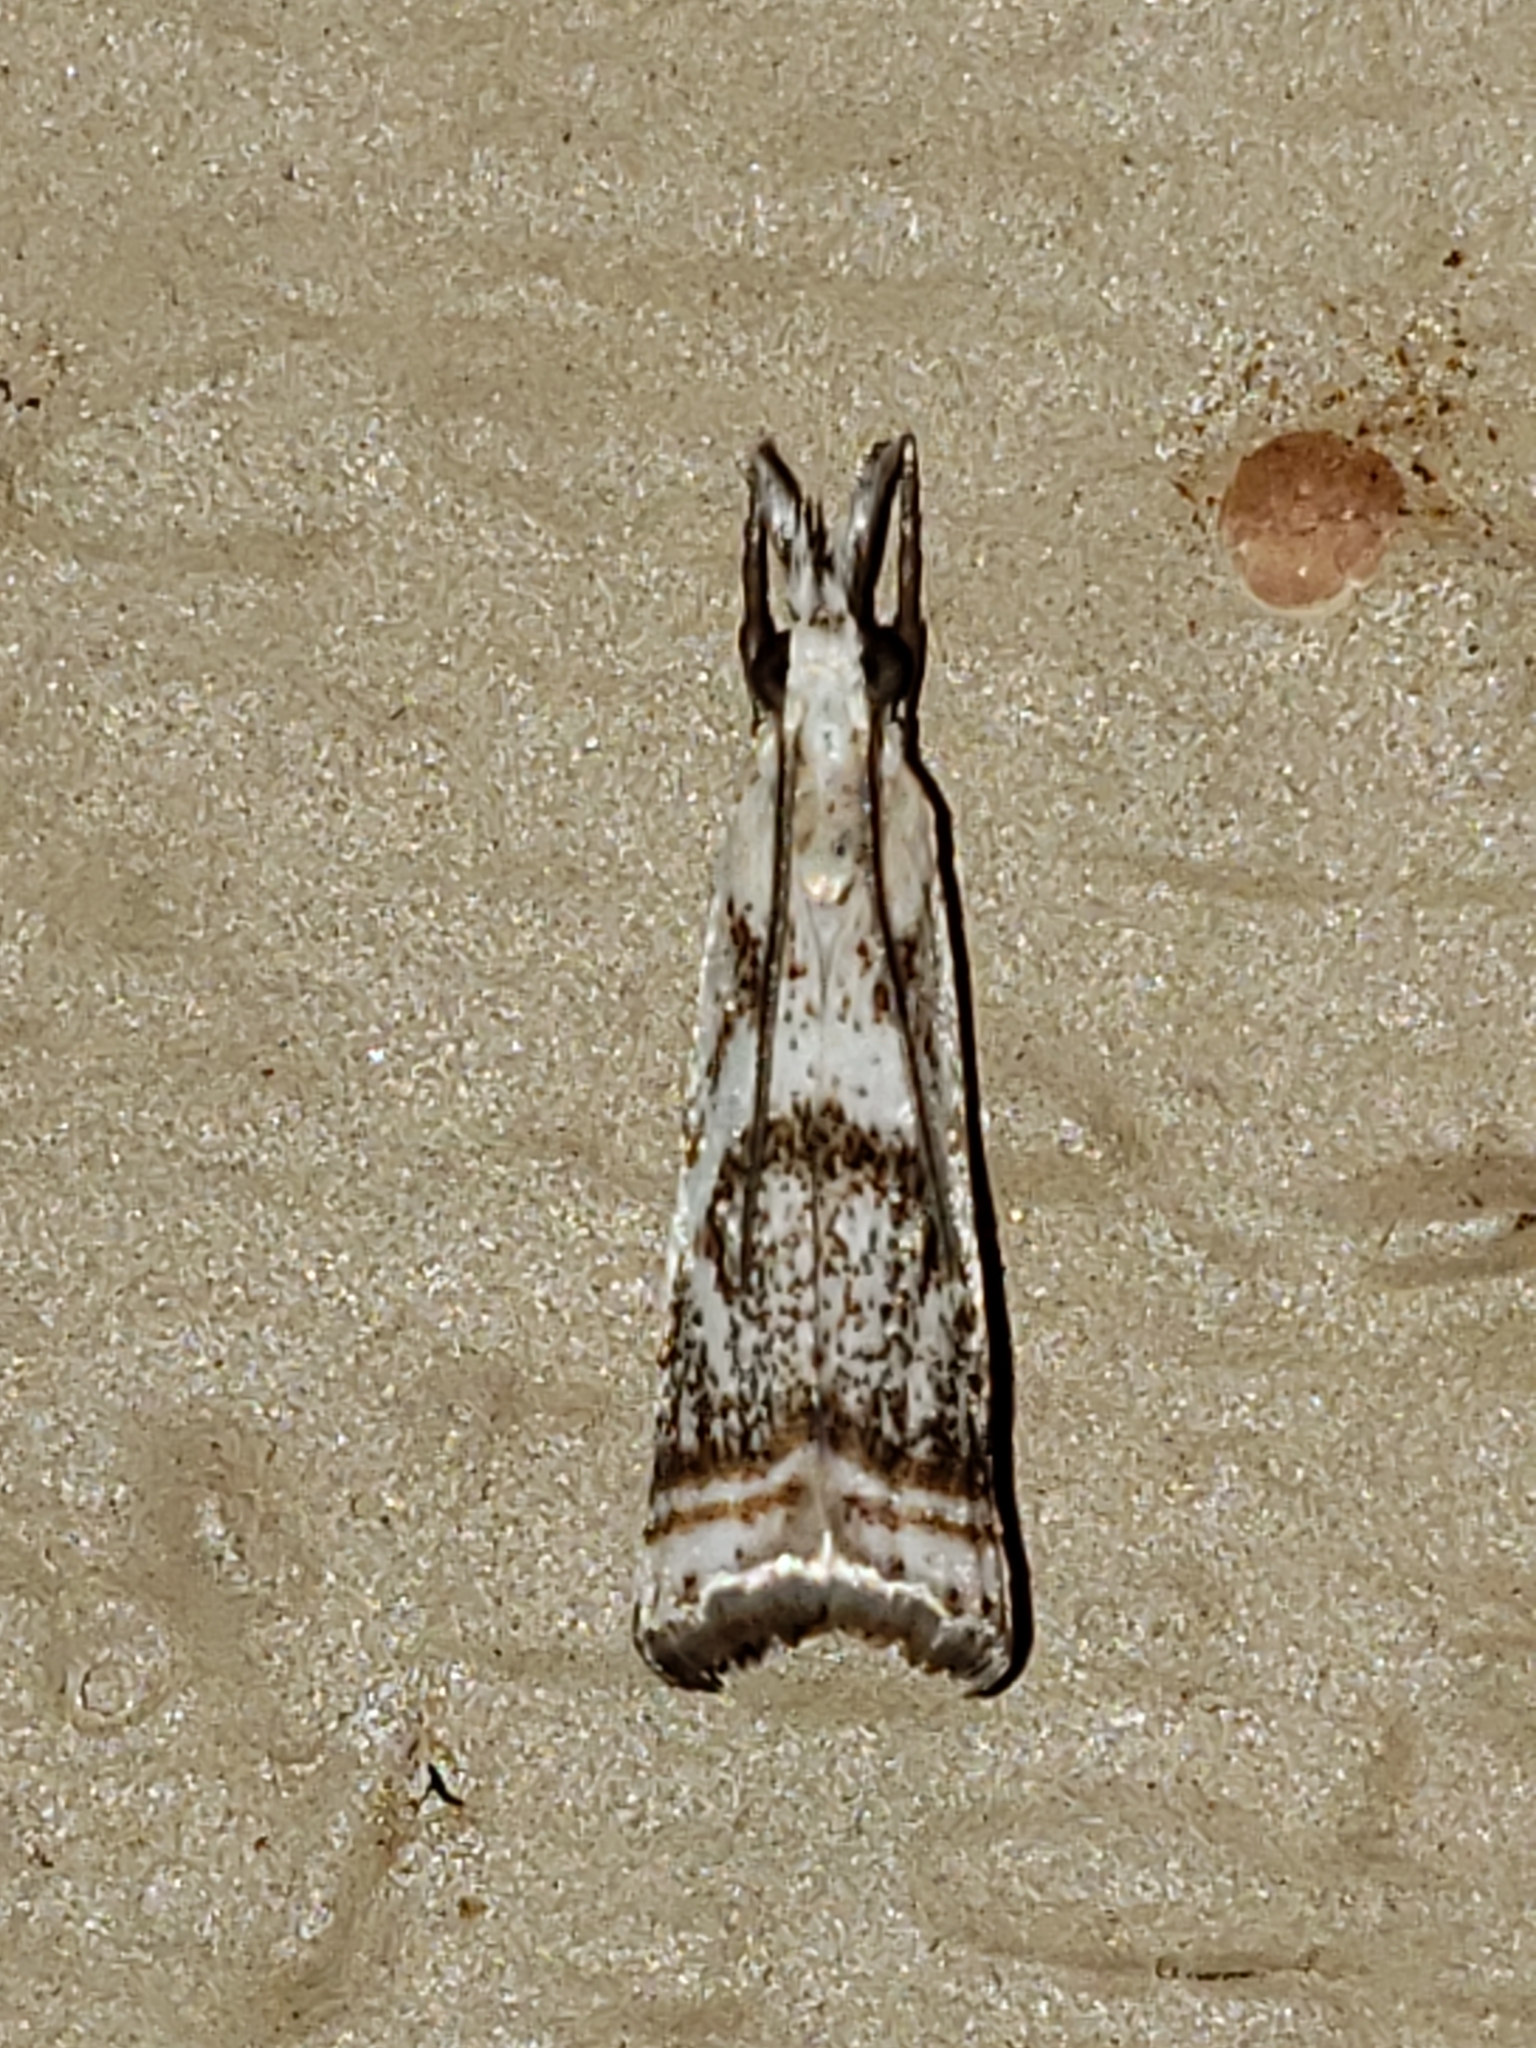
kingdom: Animalia
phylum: Arthropoda
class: Insecta
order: Lepidoptera
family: Crambidae
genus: Microcrambus
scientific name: Microcrambus elegans
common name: Elegant grass-veneer
